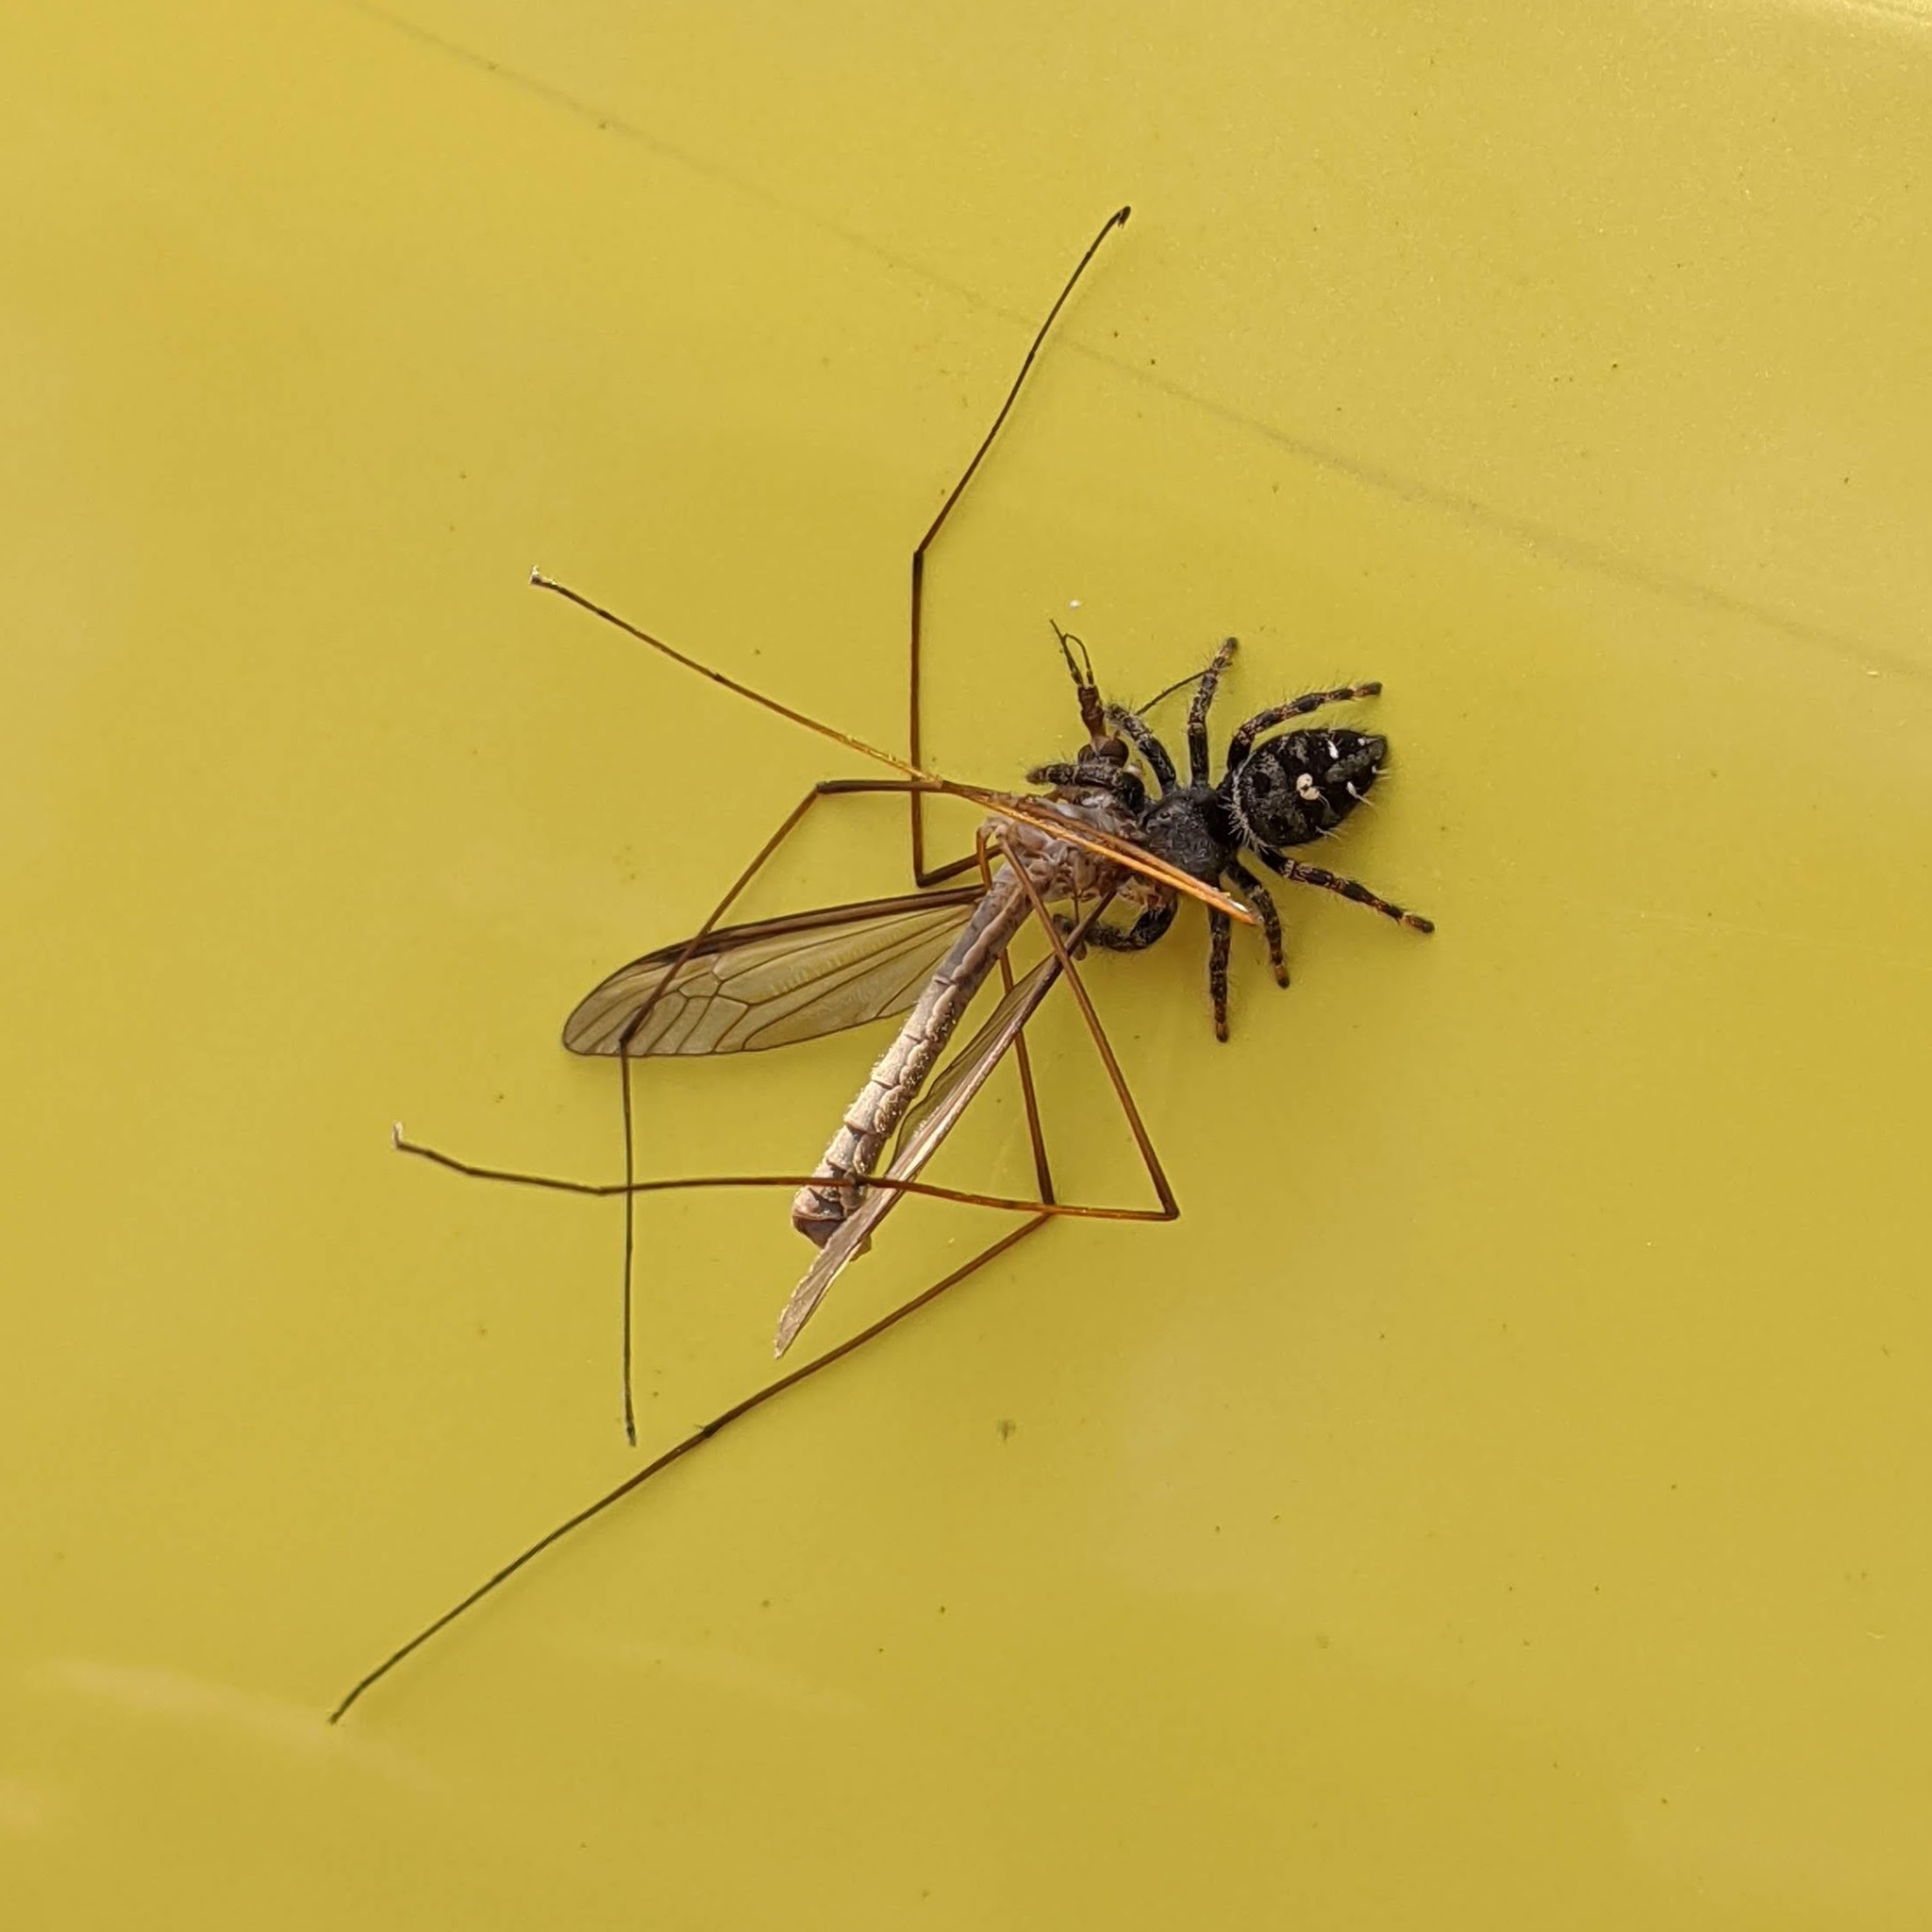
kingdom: Animalia
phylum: Arthropoda
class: Arachnida
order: Araneae
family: Salticidae
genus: Phidippus
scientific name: Phidippus audax
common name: Bold jumper
